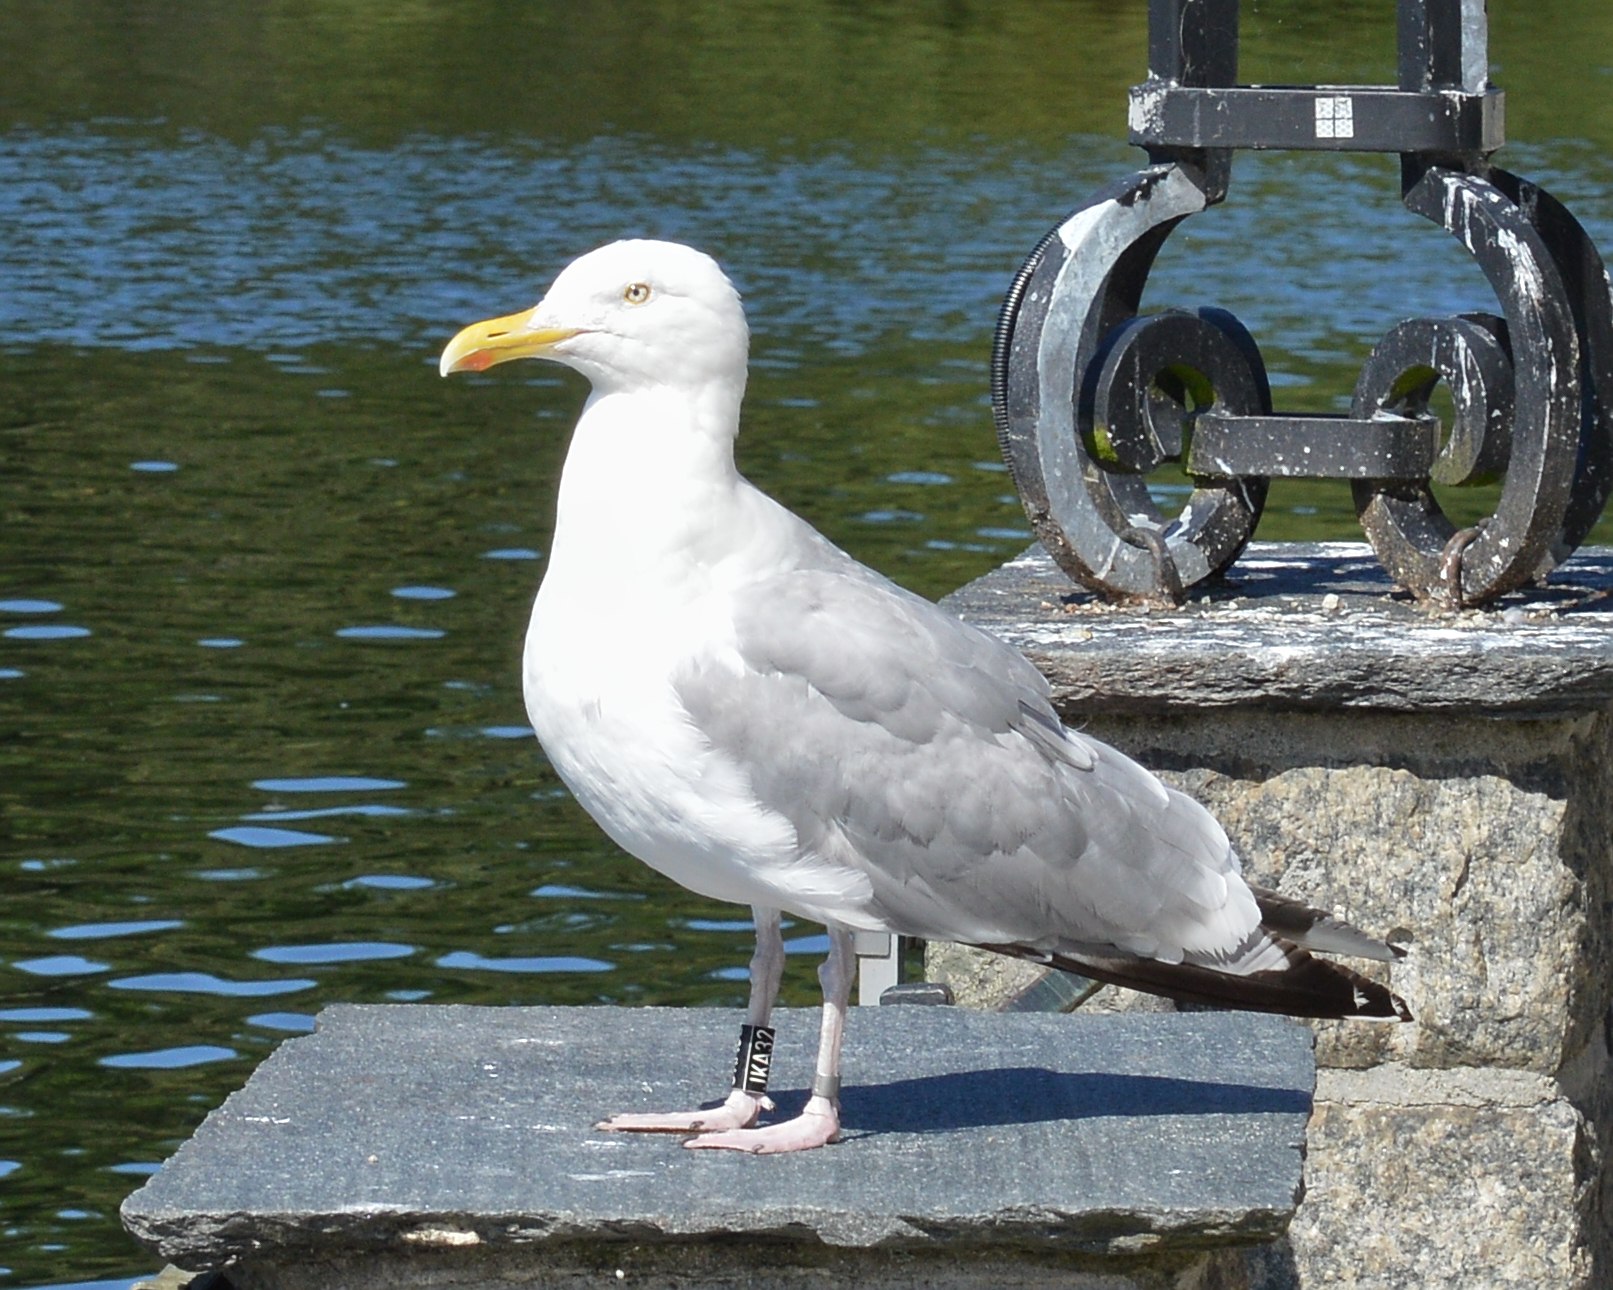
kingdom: Animalia
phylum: Chordata
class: Aves
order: Charadriiformes
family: Laridae
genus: Larus
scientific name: Larus argentatus
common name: Herring gull
